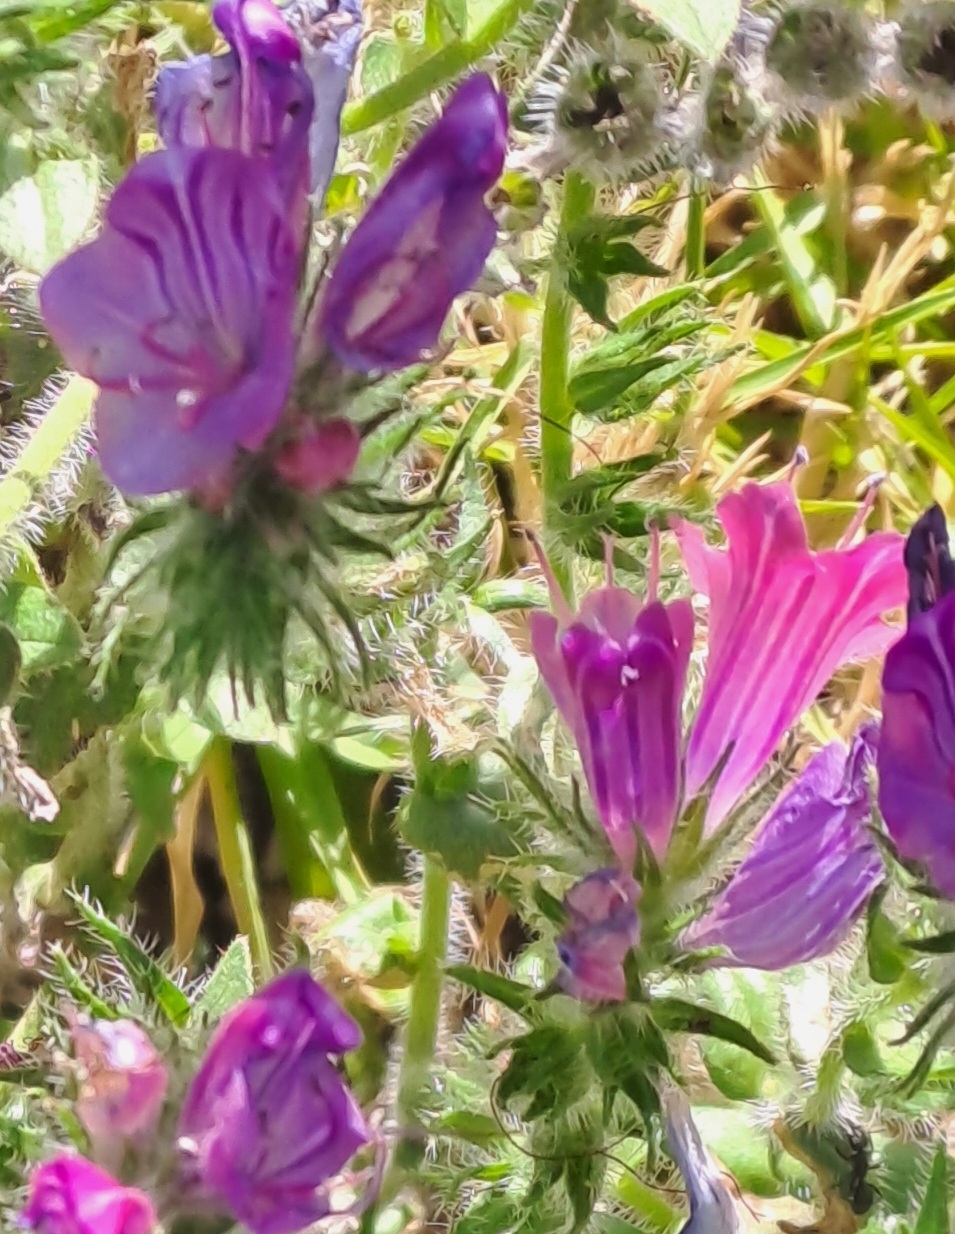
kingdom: Plantae
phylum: Tracheophyta
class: Magnoliopsida
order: Boraginales
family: Boraginaceae
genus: Echium
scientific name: Echium plantagineum
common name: Purple viper's-bugloss
